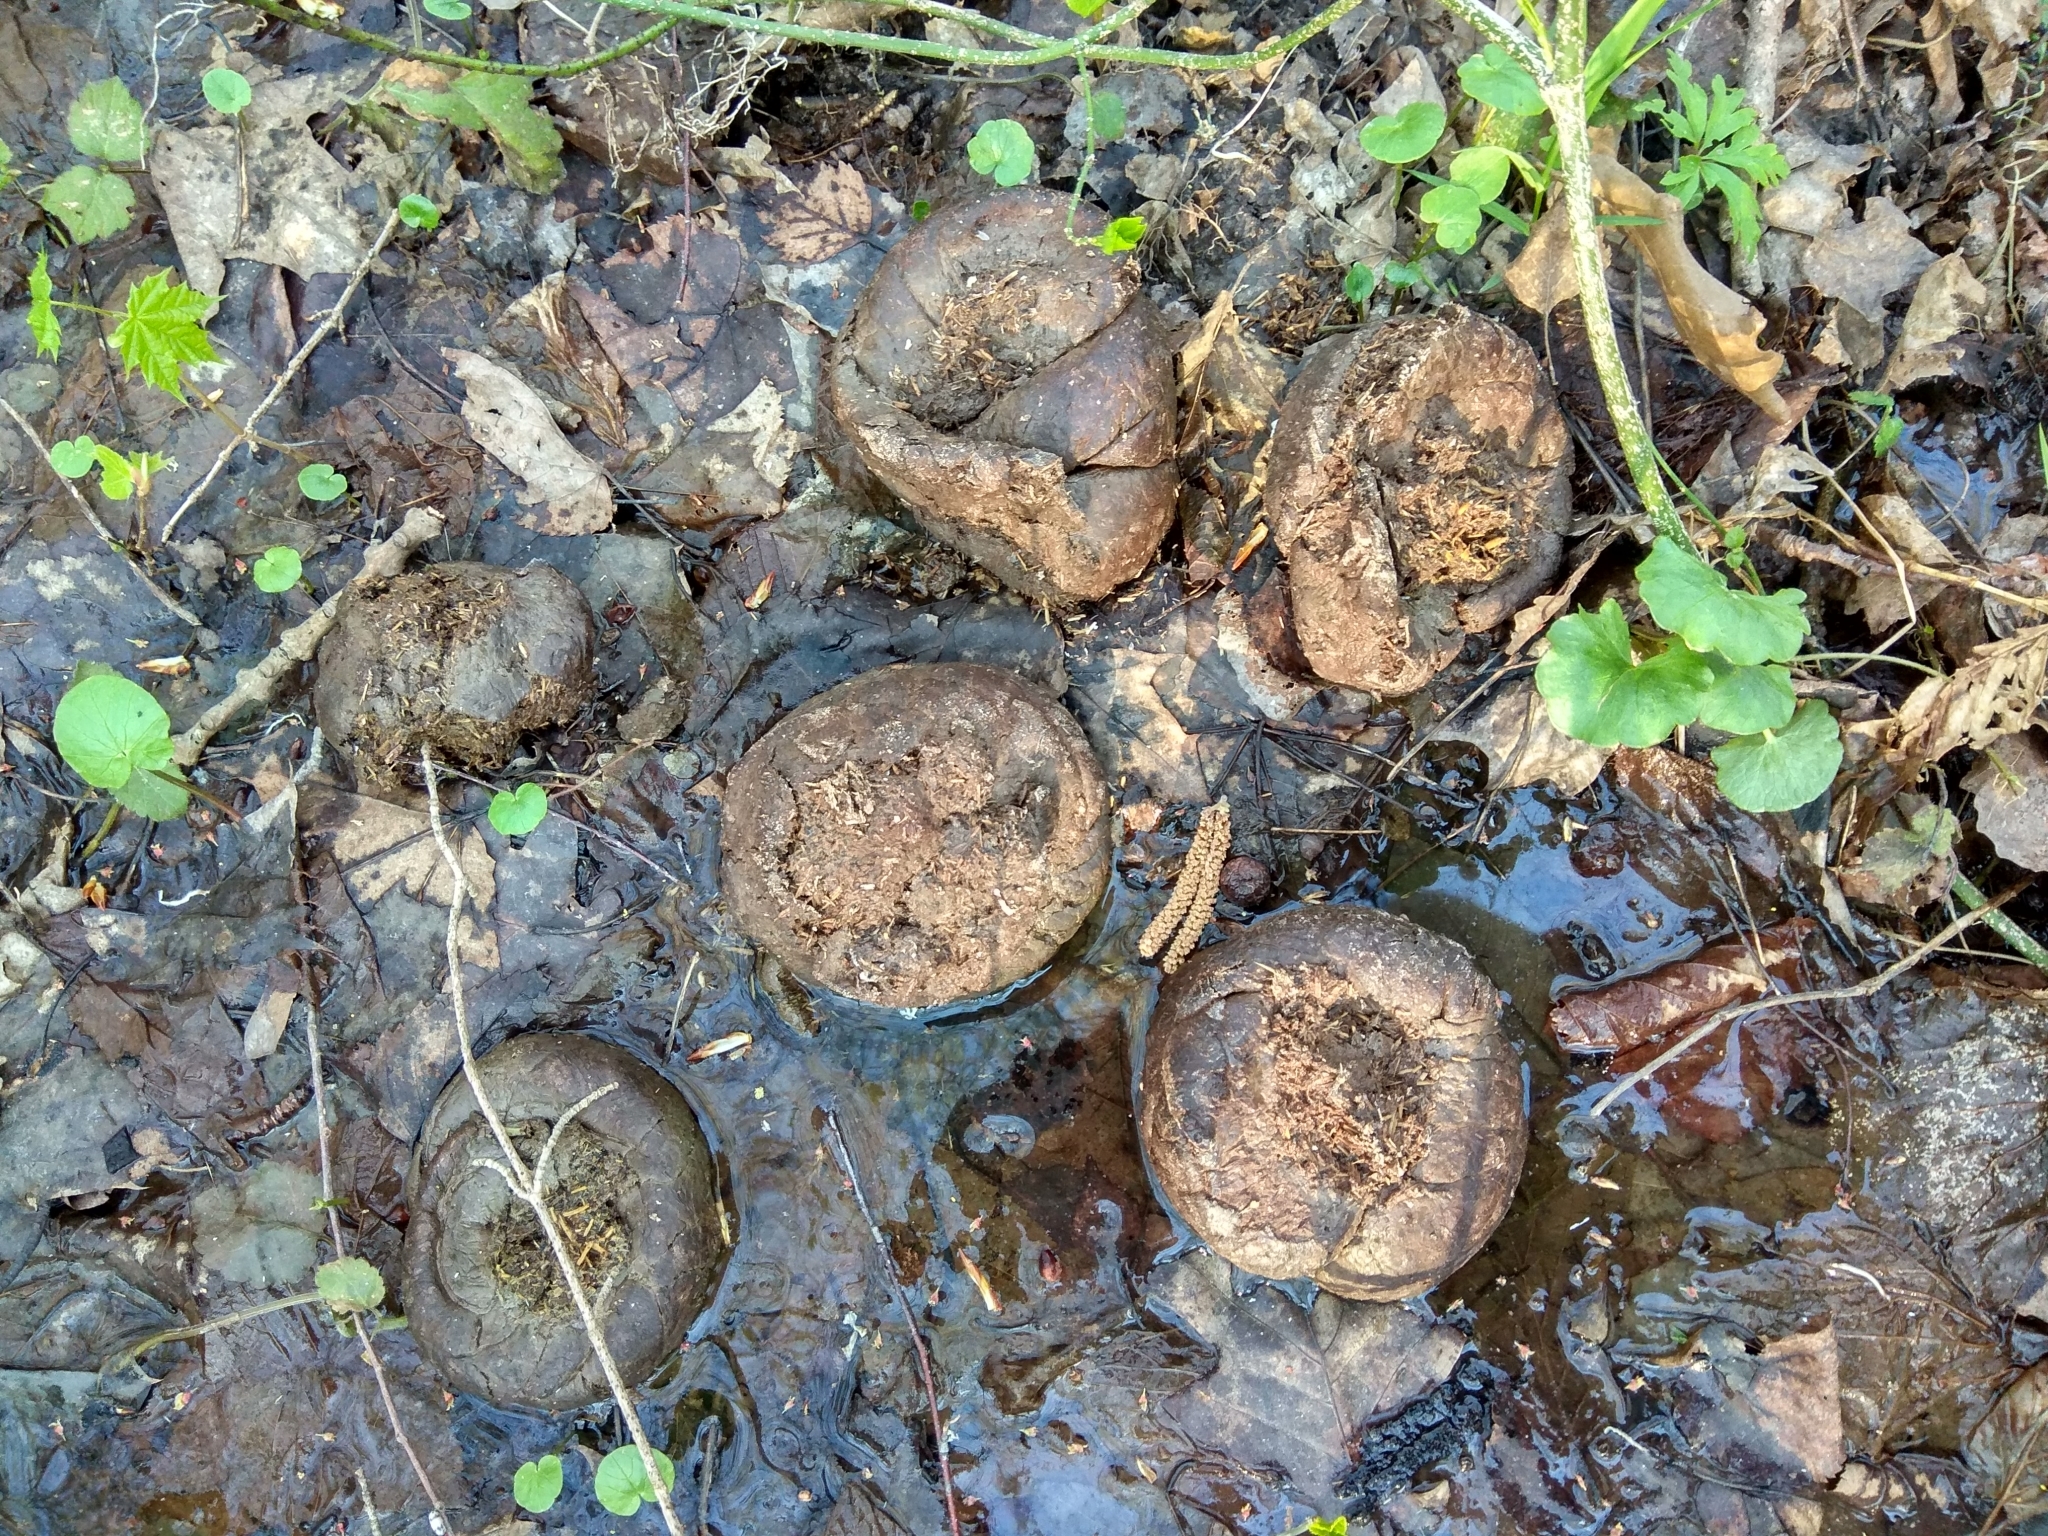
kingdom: Animalia
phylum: Chordata
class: Mammalia
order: Artiodactyla
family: Bovidae
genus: Bison
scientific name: Bison bonasus
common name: European bison
